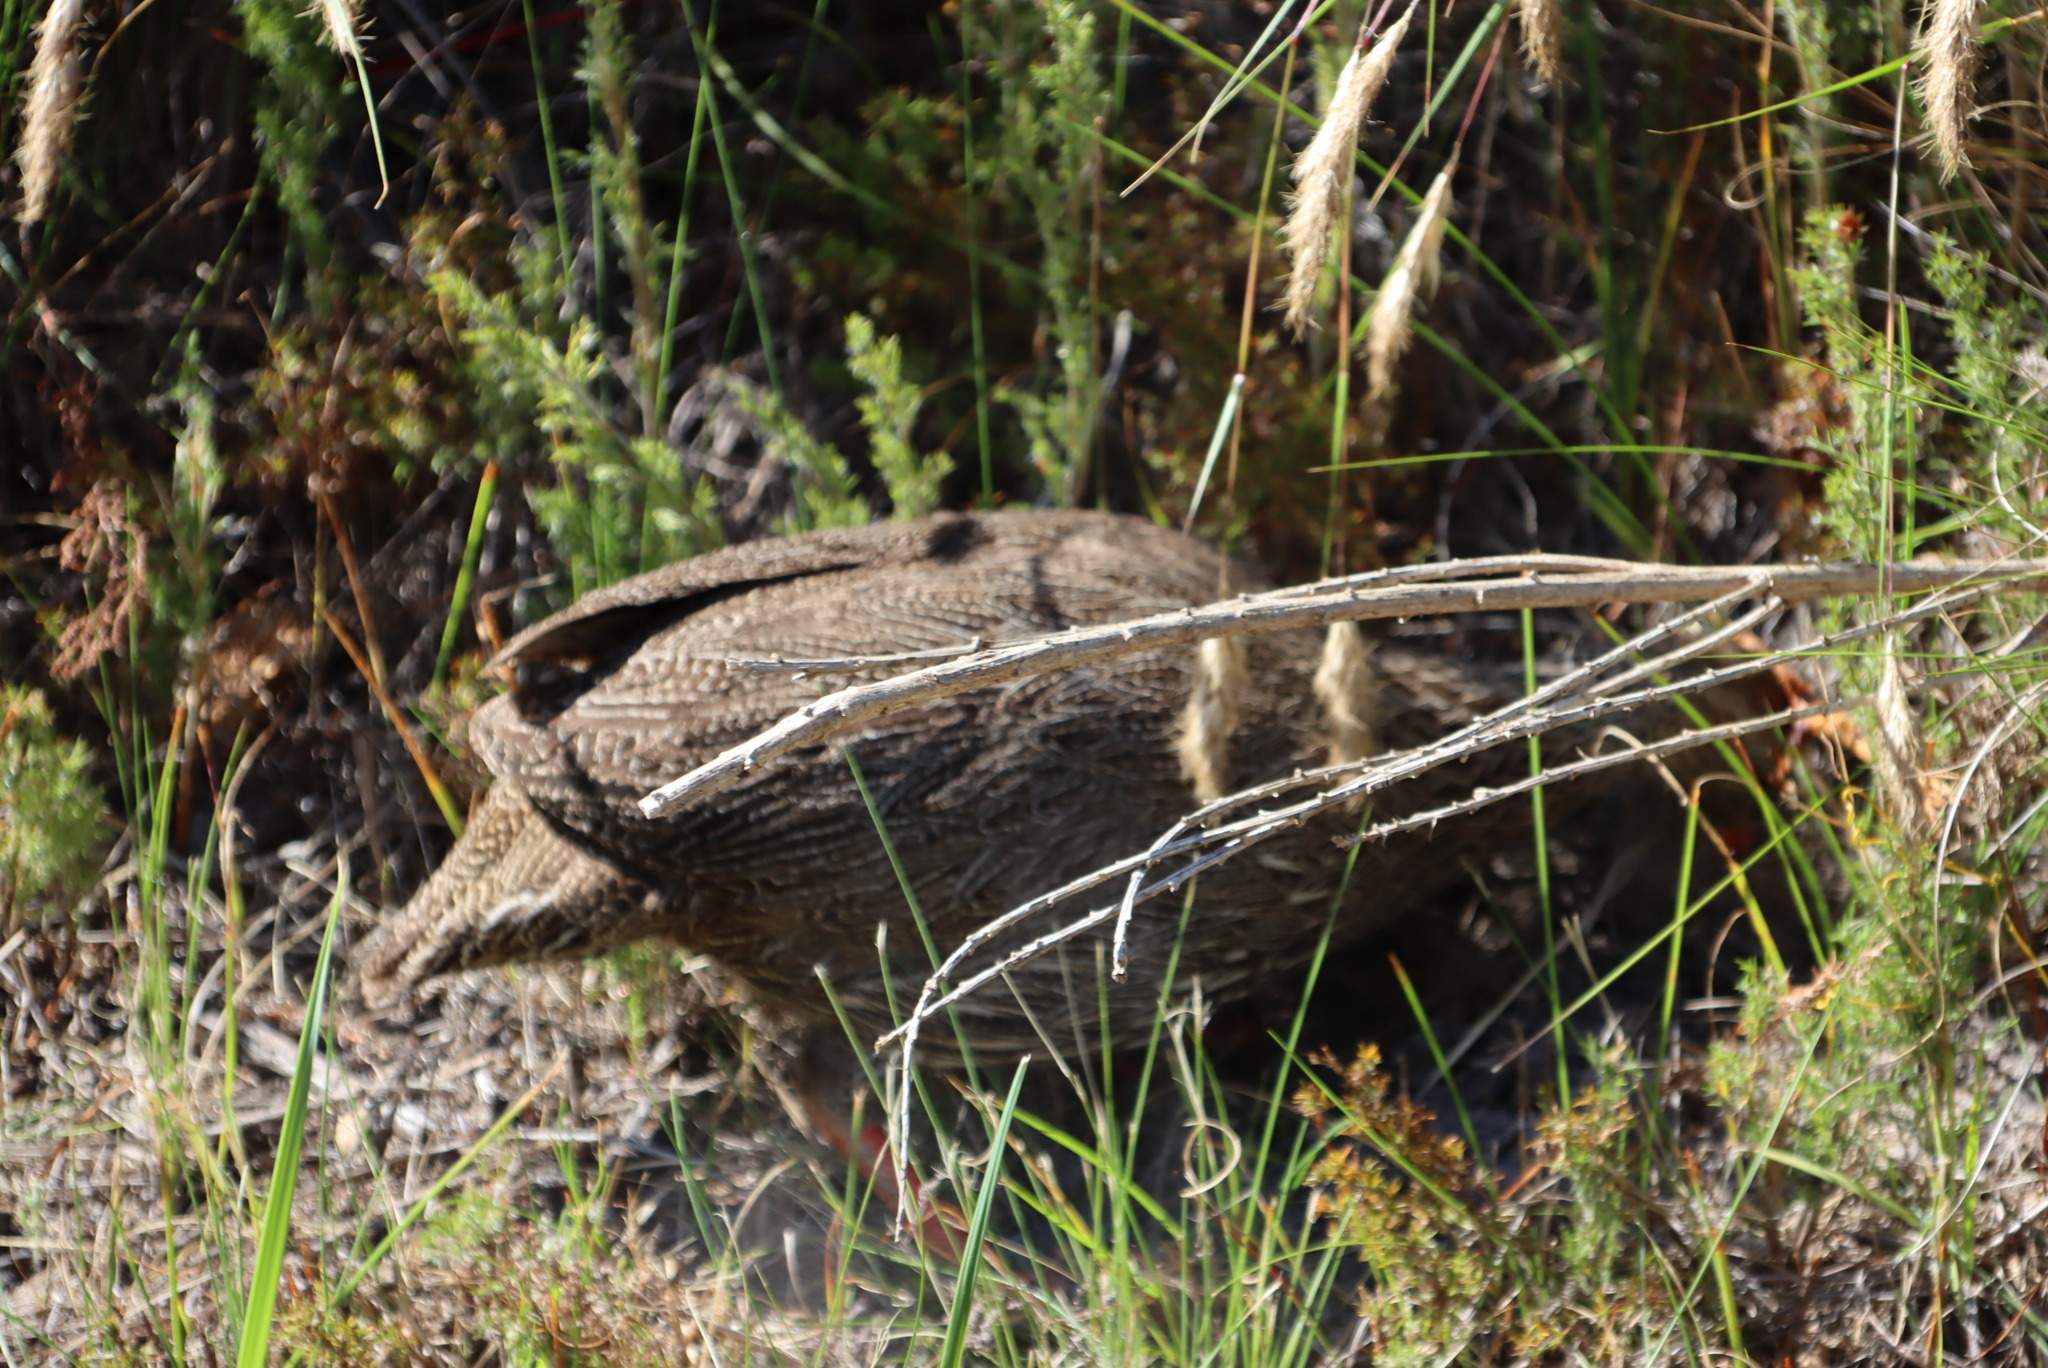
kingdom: Animalia
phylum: Chordata
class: Aves
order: Galliformes
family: Phasianidae
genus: Pternistis
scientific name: Pternistis capensis
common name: Cape spurfowl
